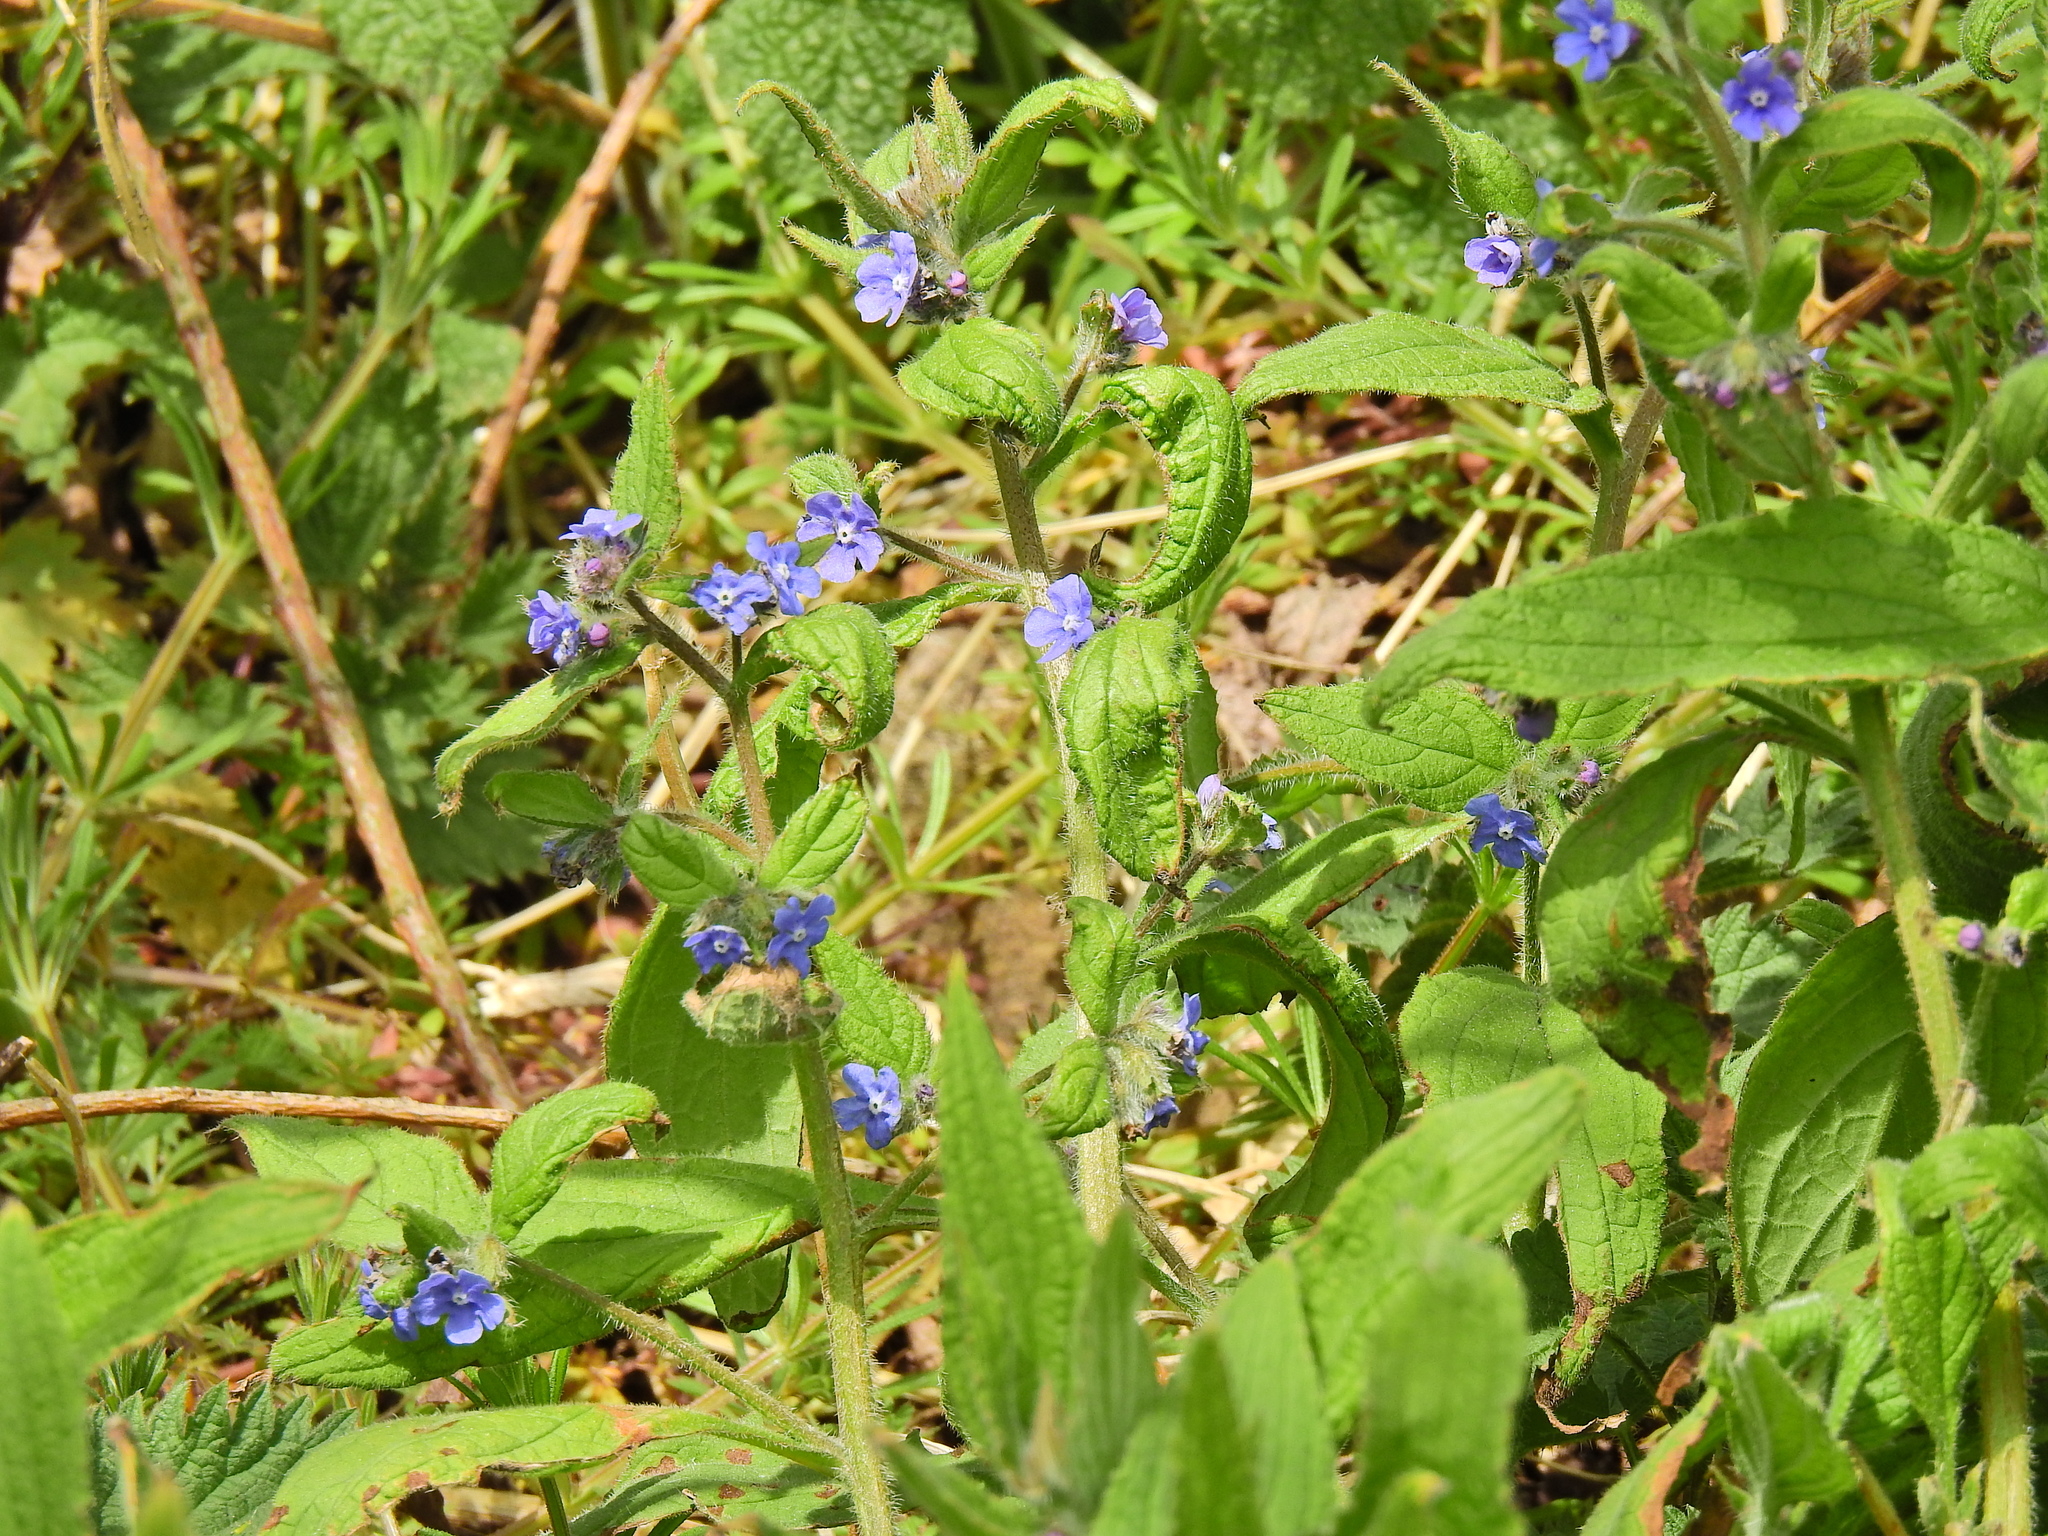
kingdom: Plantae
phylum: Tracheophyta
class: Magnoliopsida
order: Boraginales
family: Boraginaceae
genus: Pentaglottis
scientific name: Pentaglottis sempervirens
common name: Green alkanet
